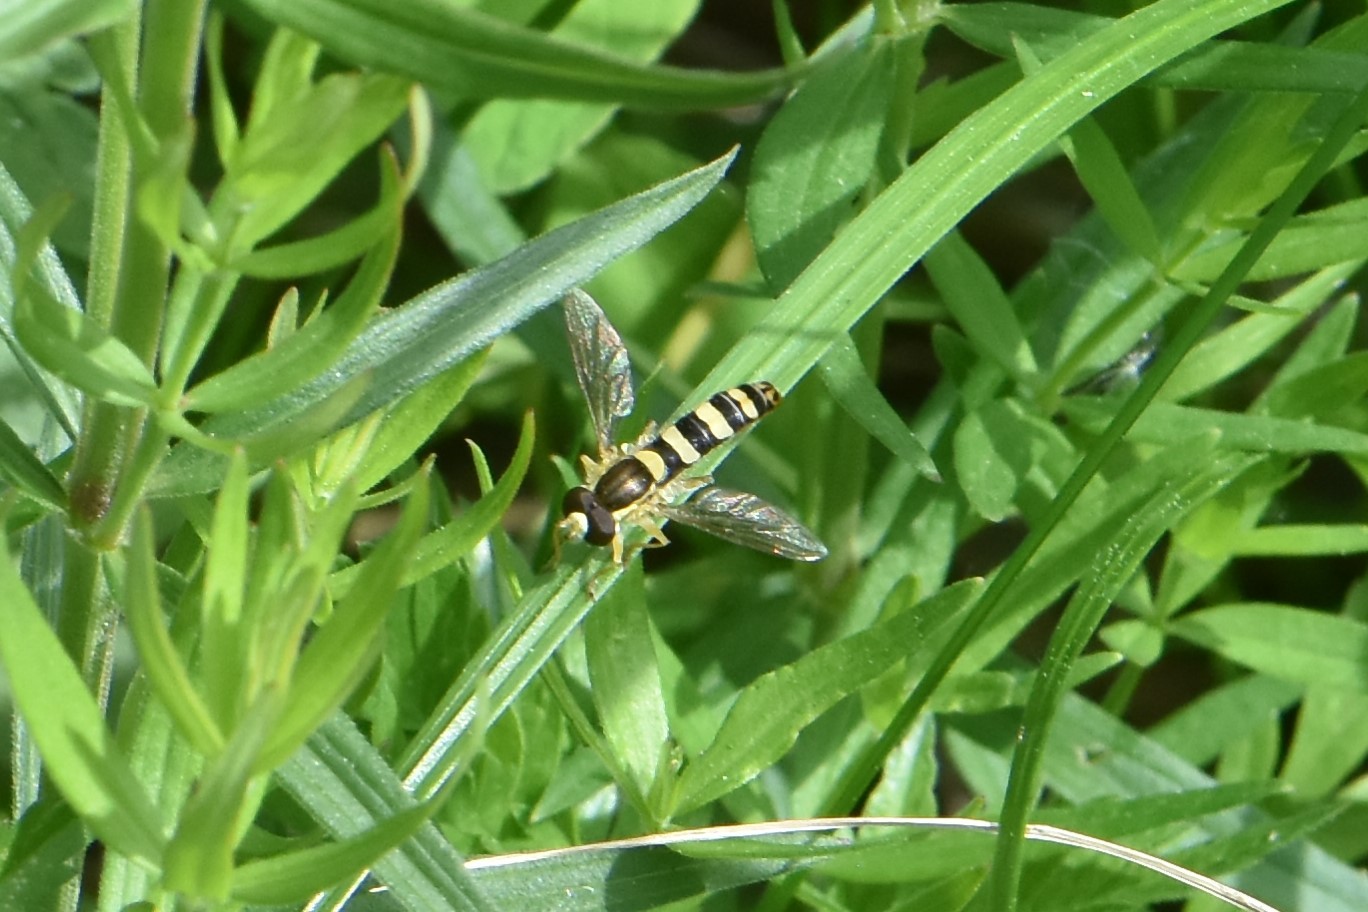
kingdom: Animalia
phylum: Arthropoda
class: Insecta
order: Diptera
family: Syrphidae
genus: Sphaerophoria
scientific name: Sphaerophoria
